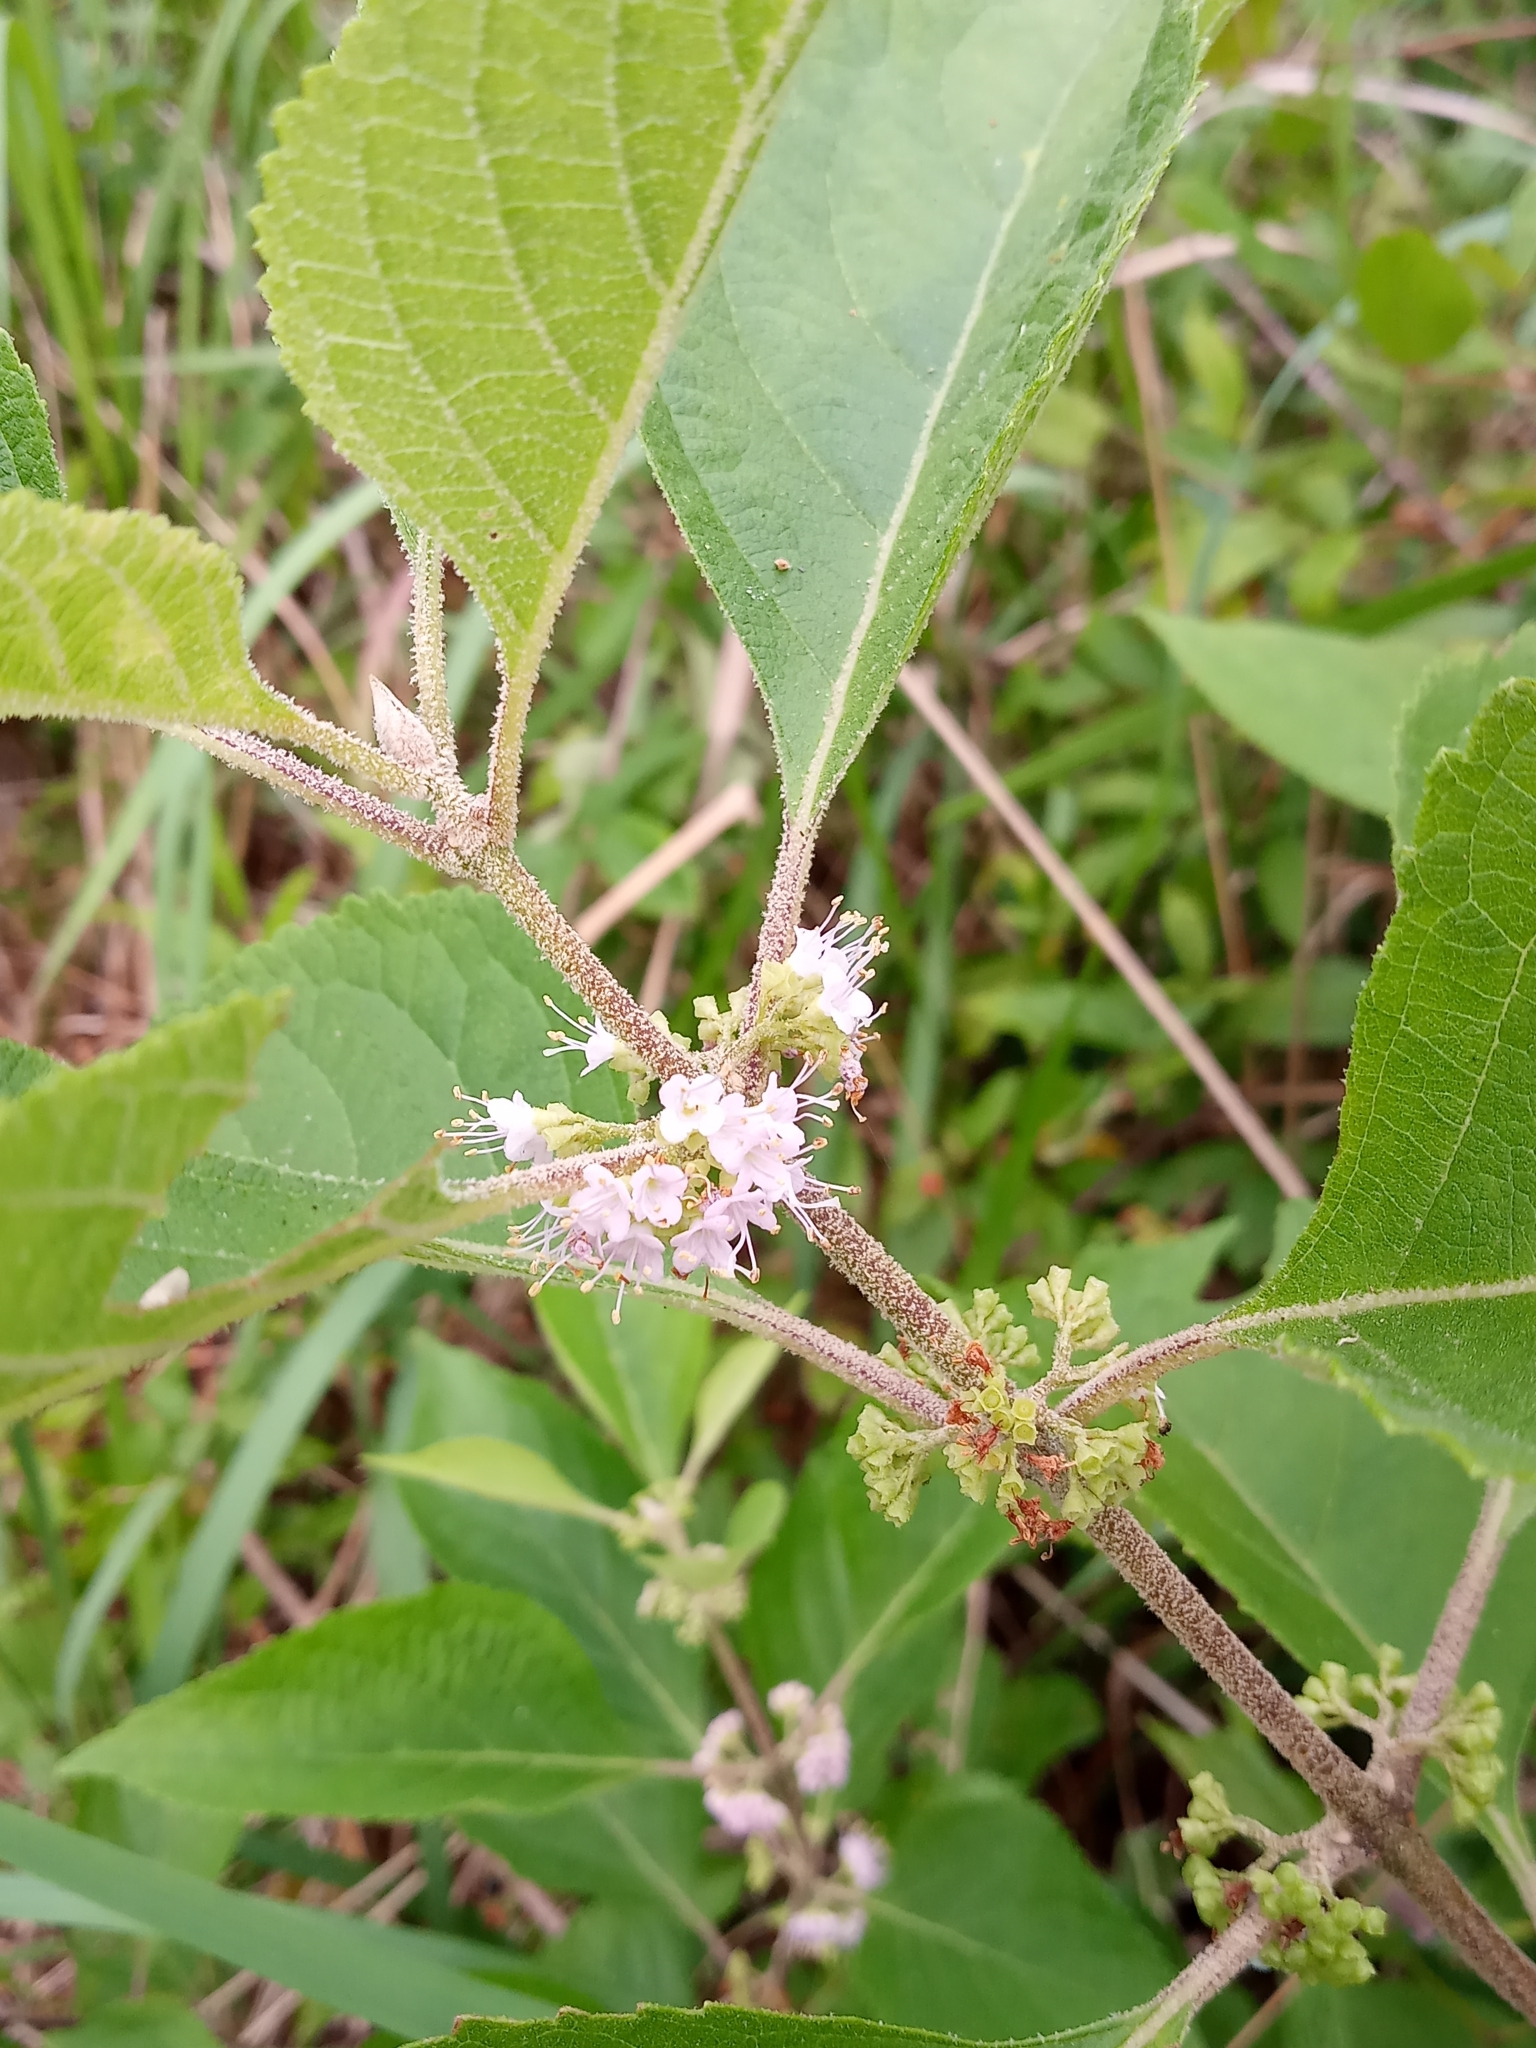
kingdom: Plantae
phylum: Tracheophyta
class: Magnoliopsida
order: Lamiales
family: Lamiaceae
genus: Callicarpa
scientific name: Callicarpa americana
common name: American beautyberry
